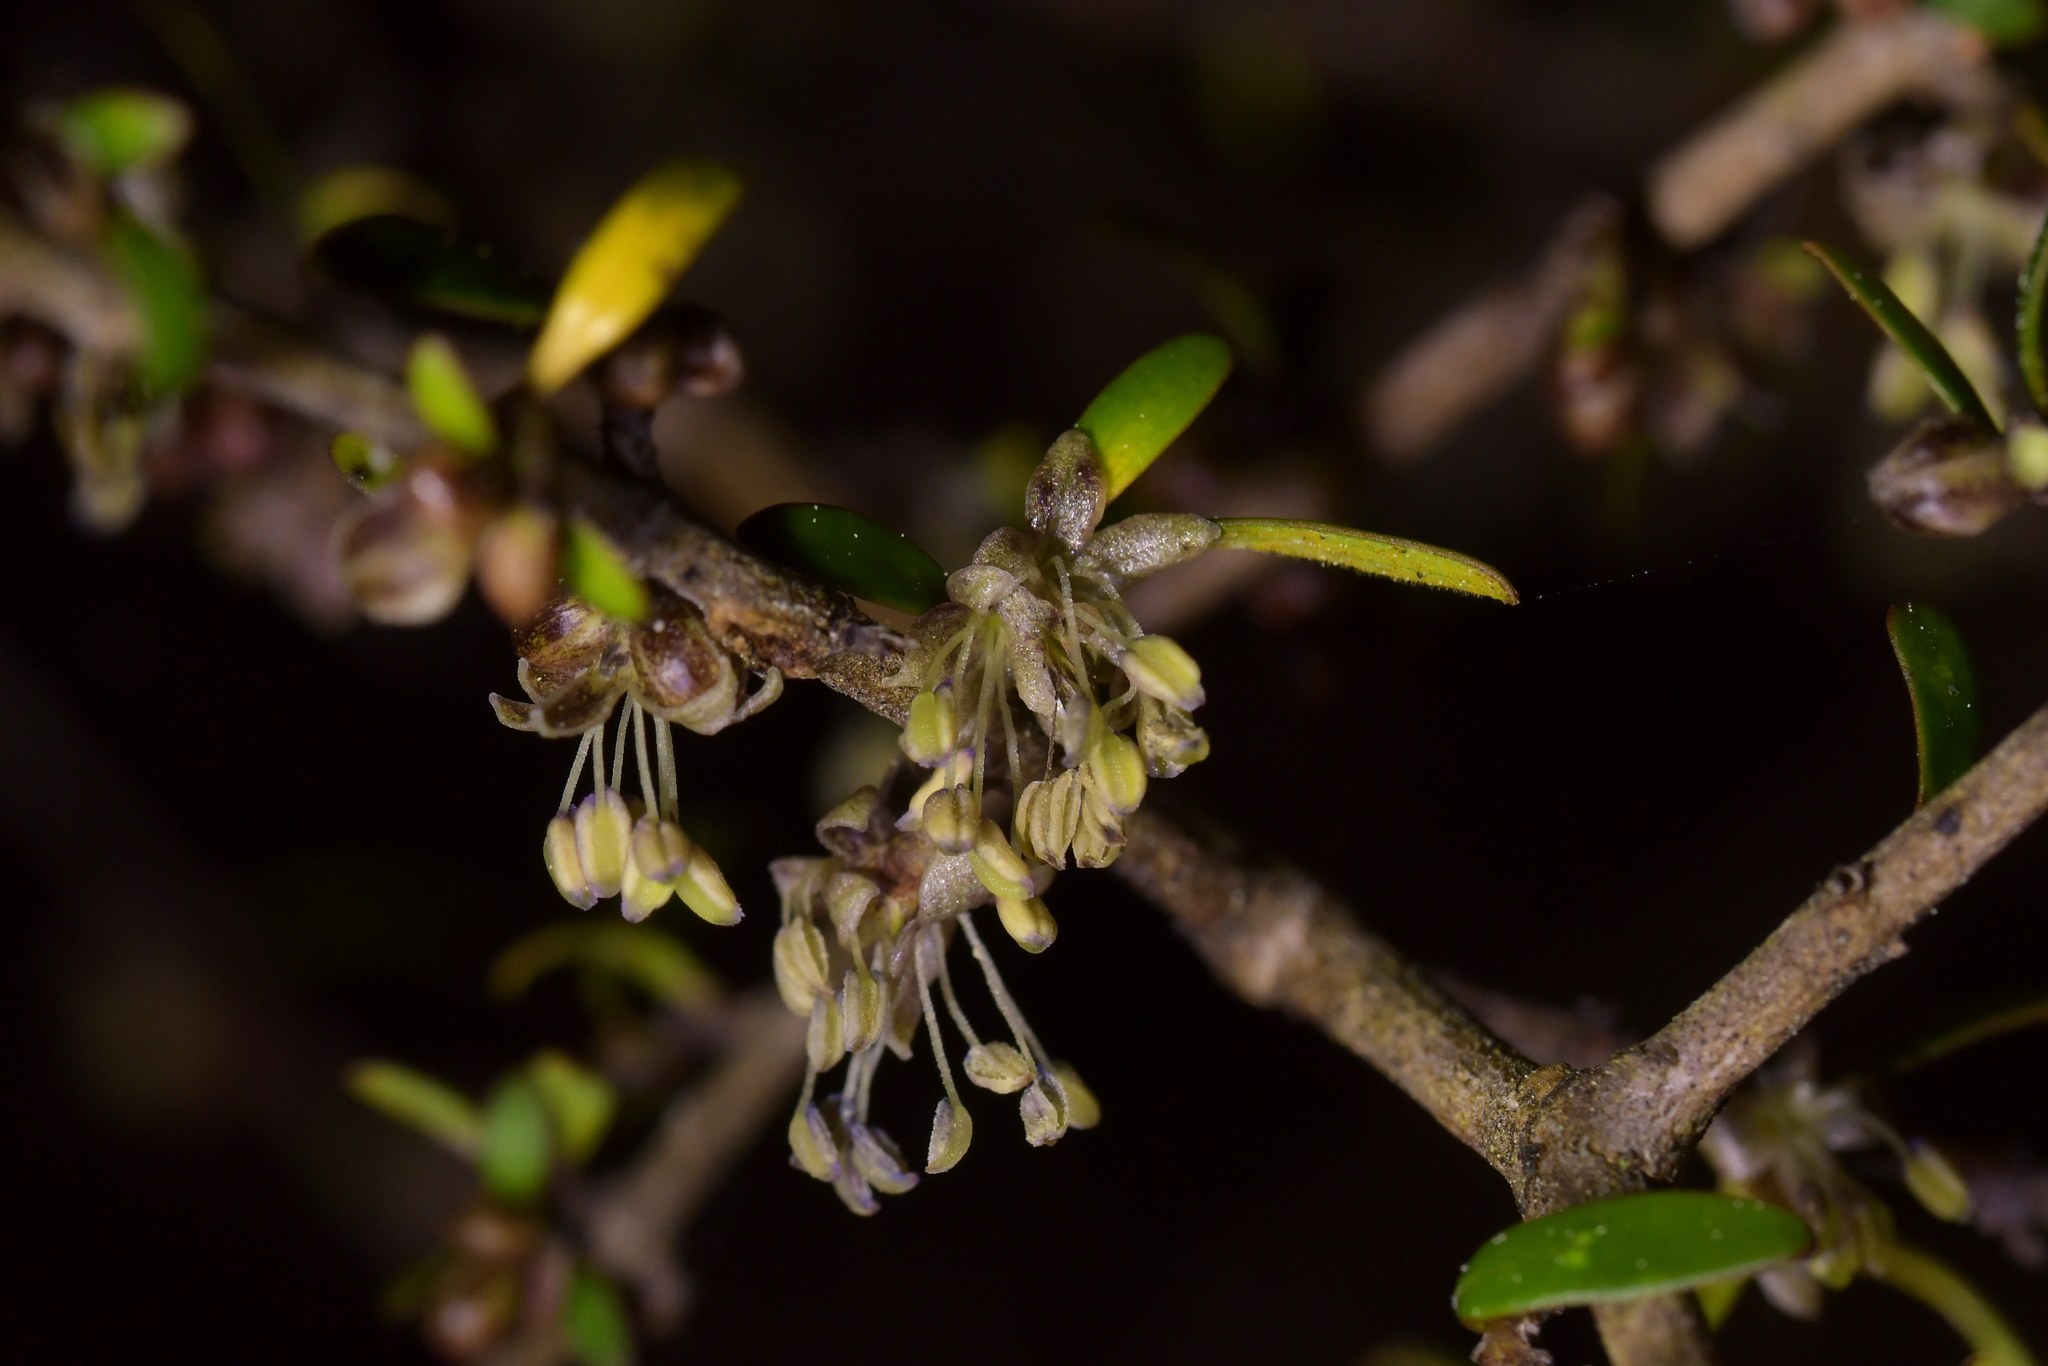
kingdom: Plantae
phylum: Tracheophyta
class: Magnoliopsida
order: Gentianales
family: Rubiaceae
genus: Coprosma
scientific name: Coprosma propinqua
